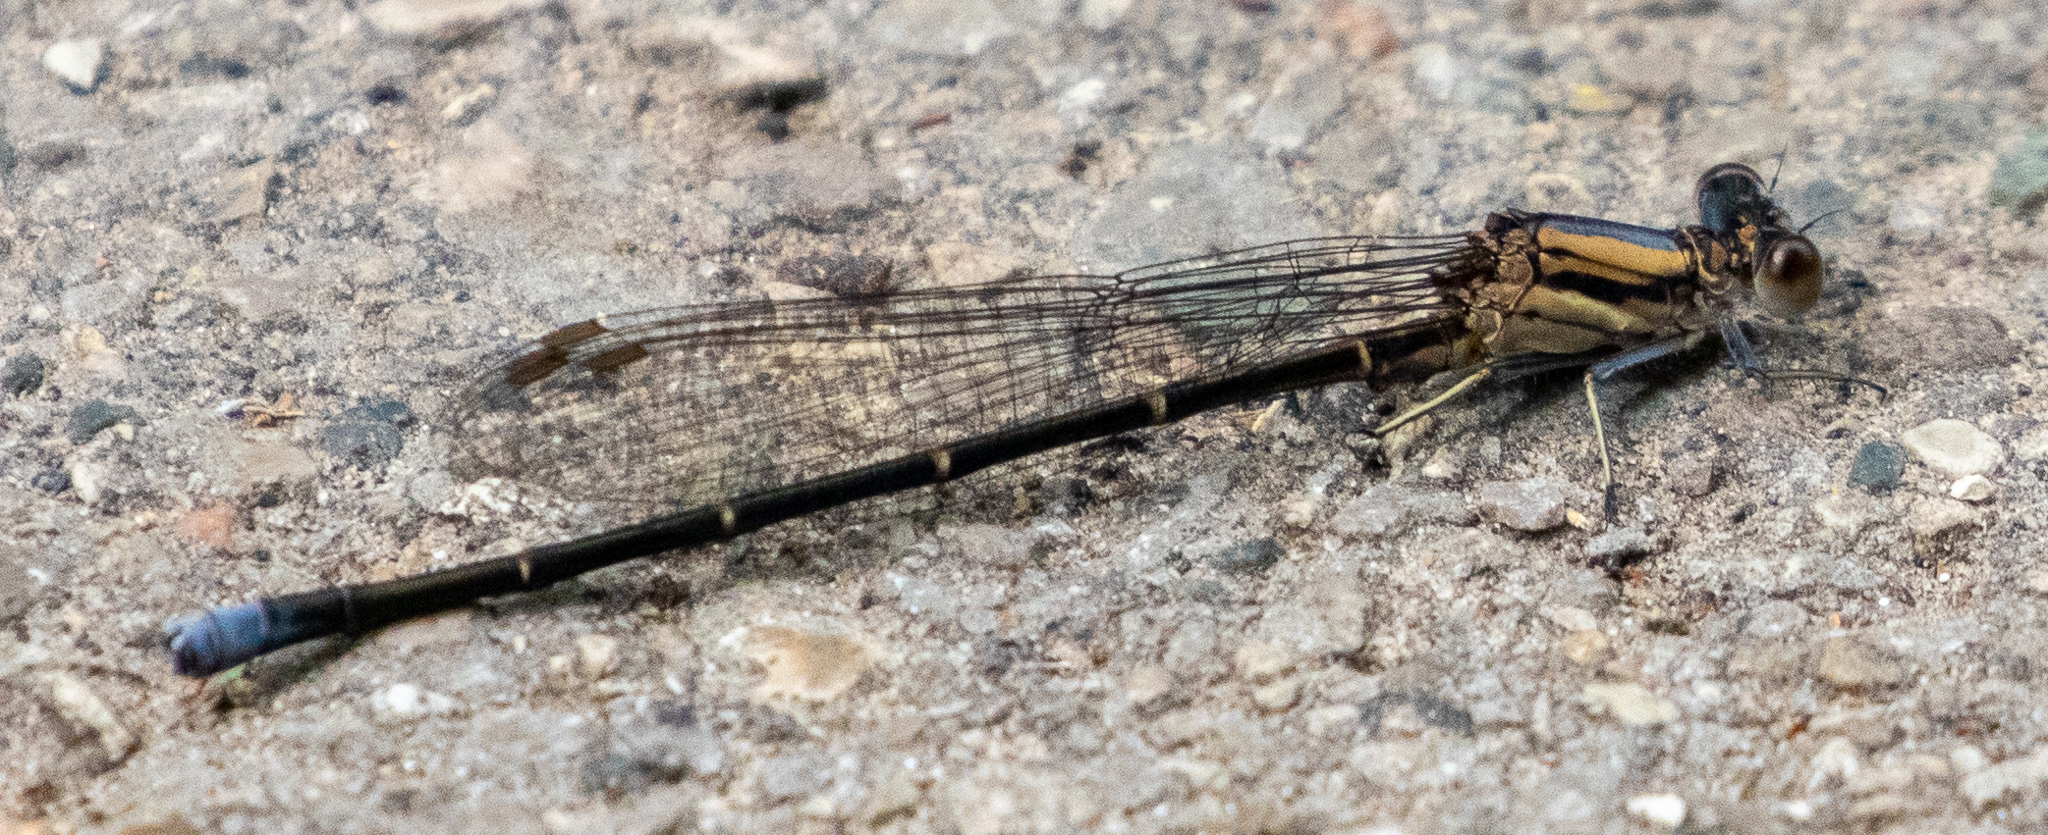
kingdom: Animalia
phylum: Arthropoda
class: Insecta
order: Odonata
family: Coenagrionidae
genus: Argia
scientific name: Argia moesta
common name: Powdered dancer
